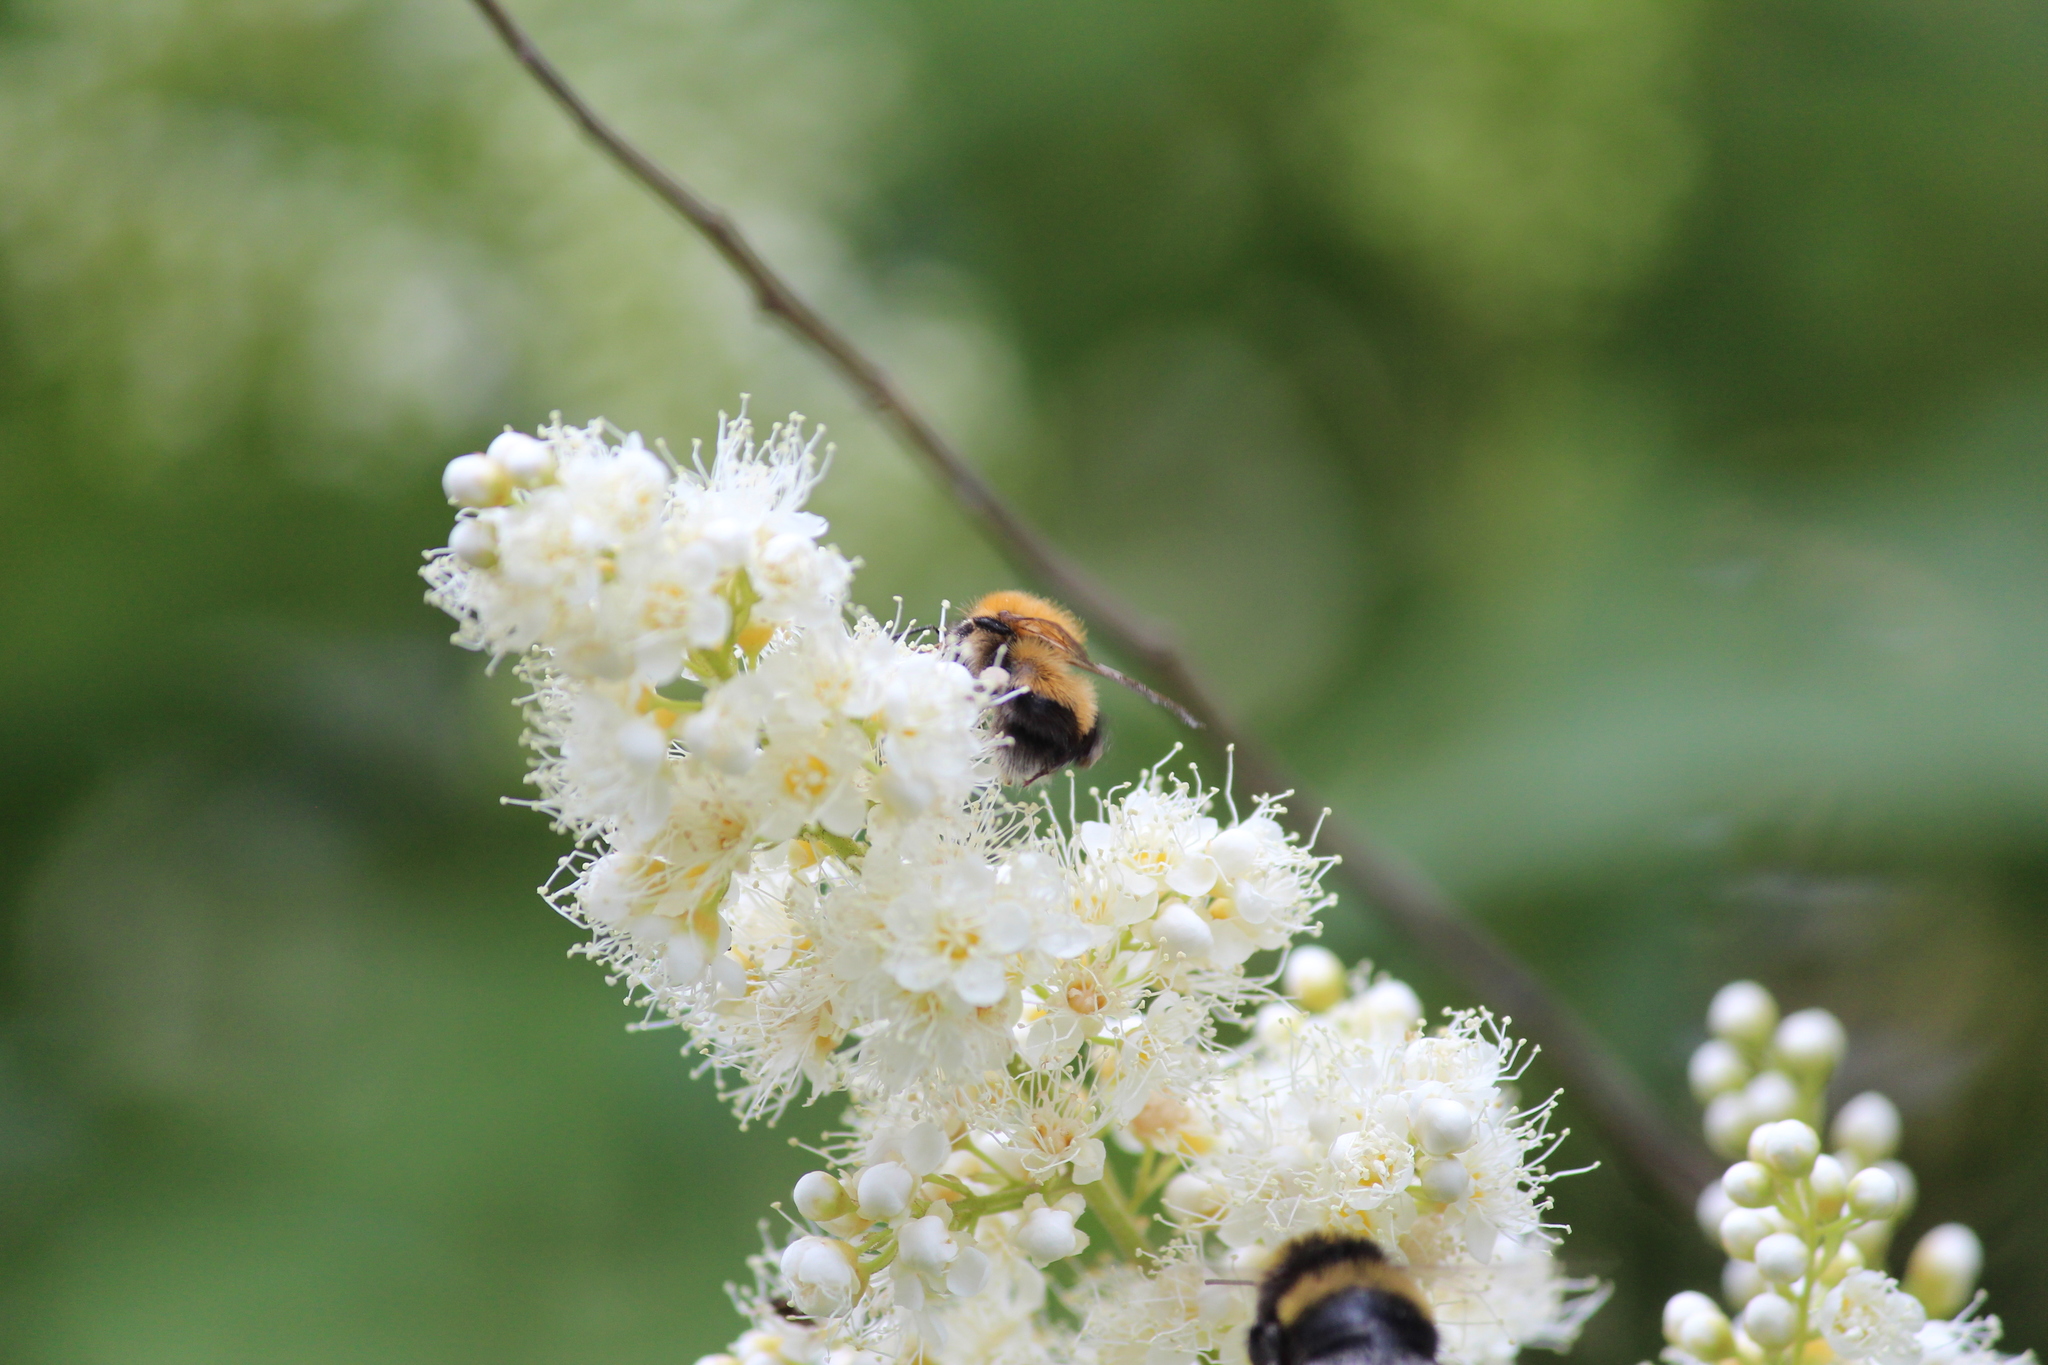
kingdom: Animalia
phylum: Arthropoda
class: Insecta
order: Hymenoptera
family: Apidae
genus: Bombus
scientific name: Bombus hypnorum
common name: New garden bumblebee
